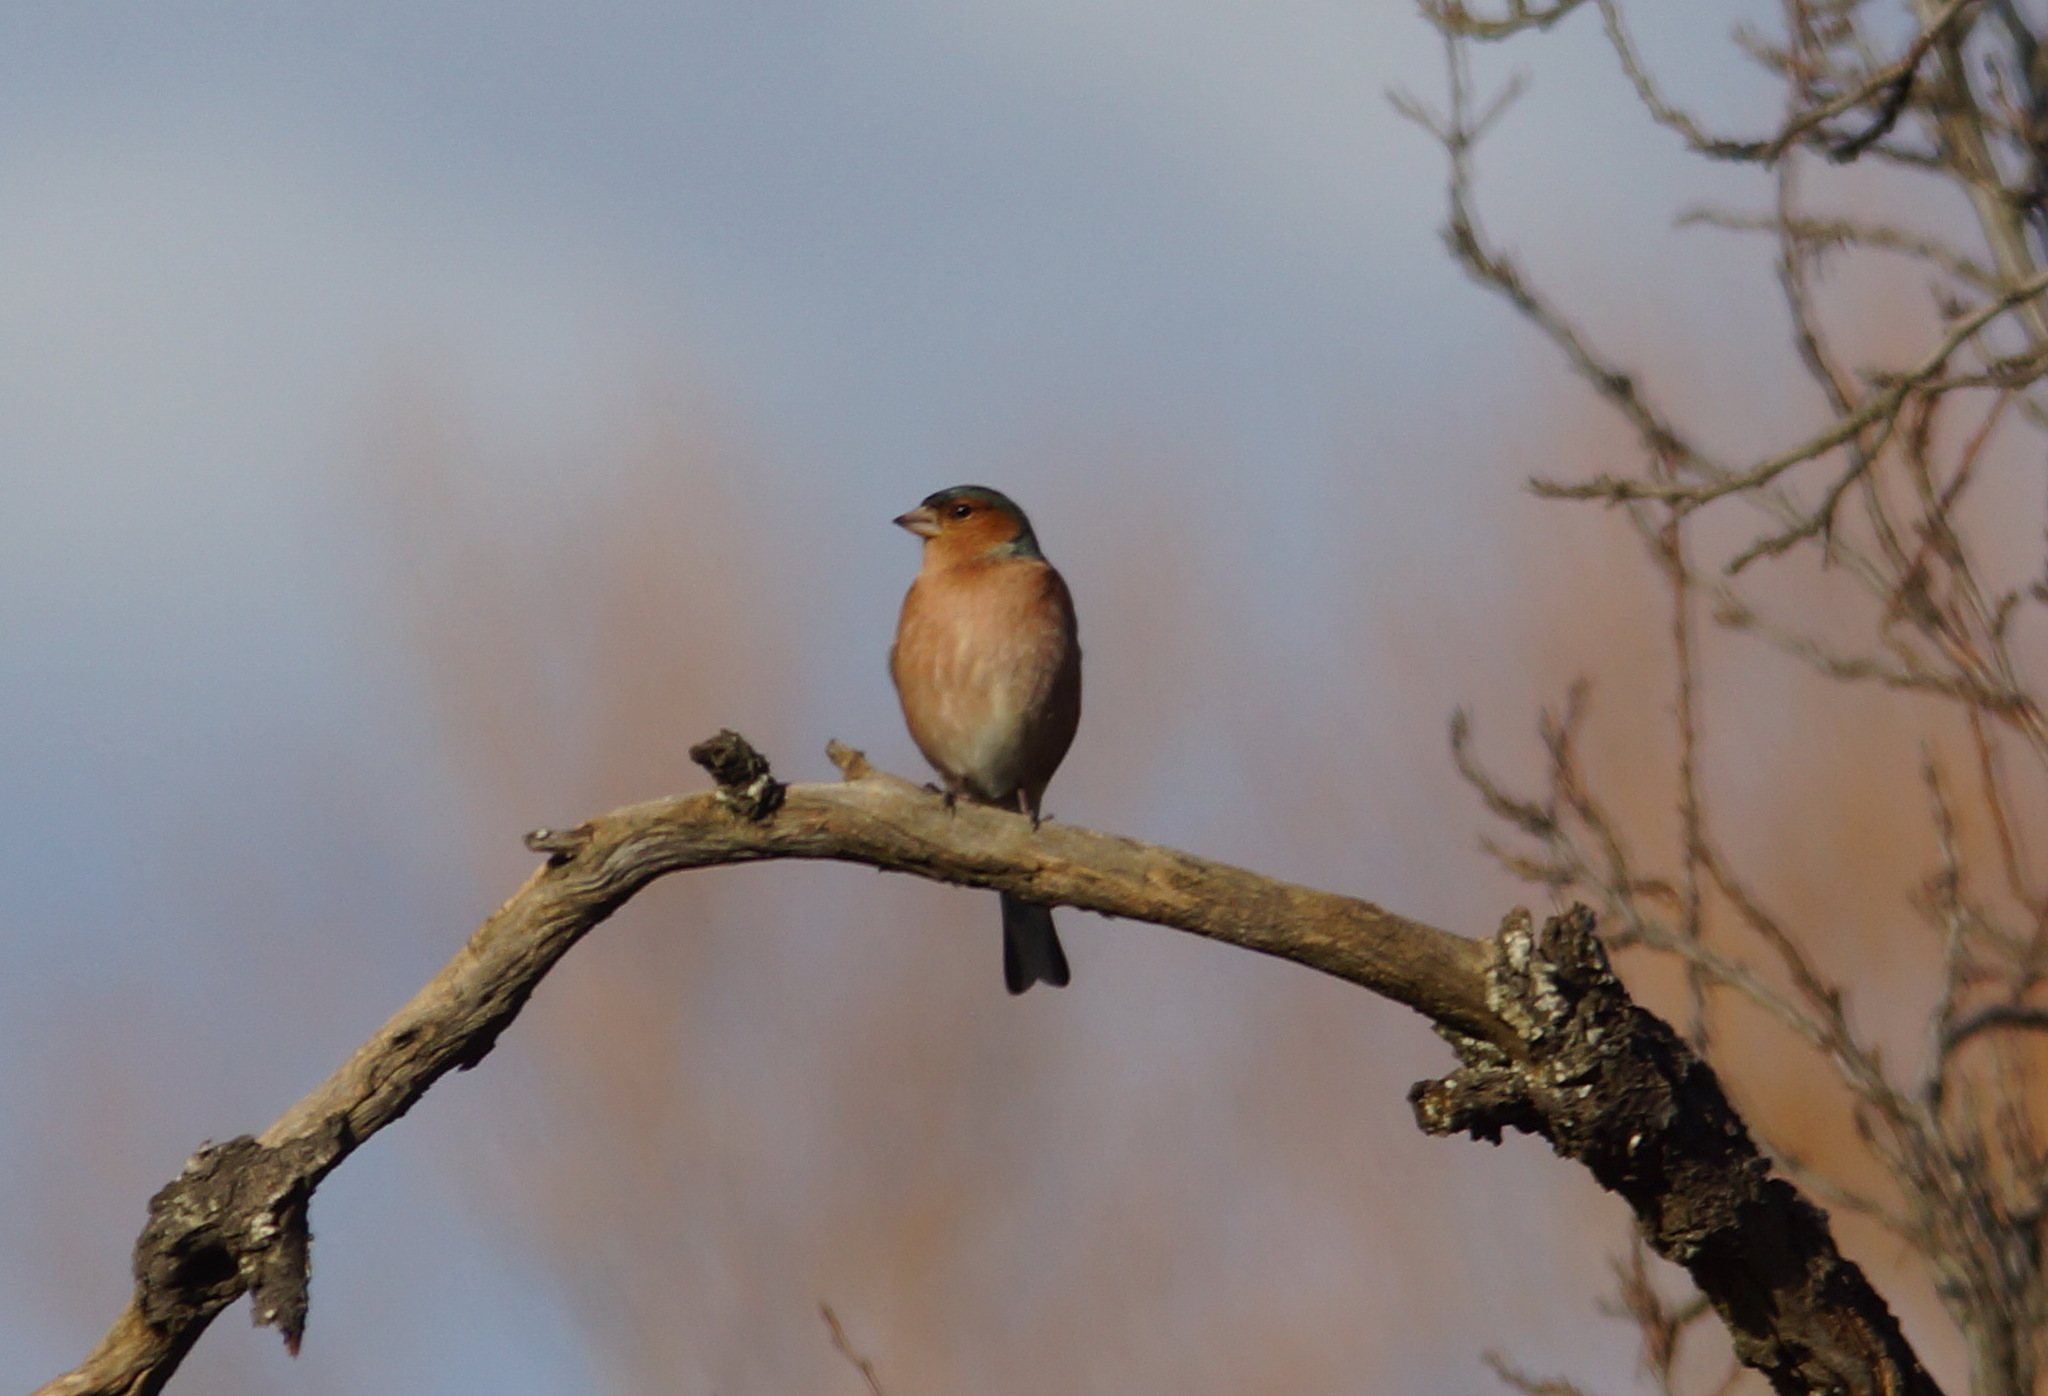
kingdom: Animalia
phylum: Chordata
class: Aves
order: Passeriformes
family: Fringillidae
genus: Fringilla
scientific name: Fringilla coelebs
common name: Common chaffinch
